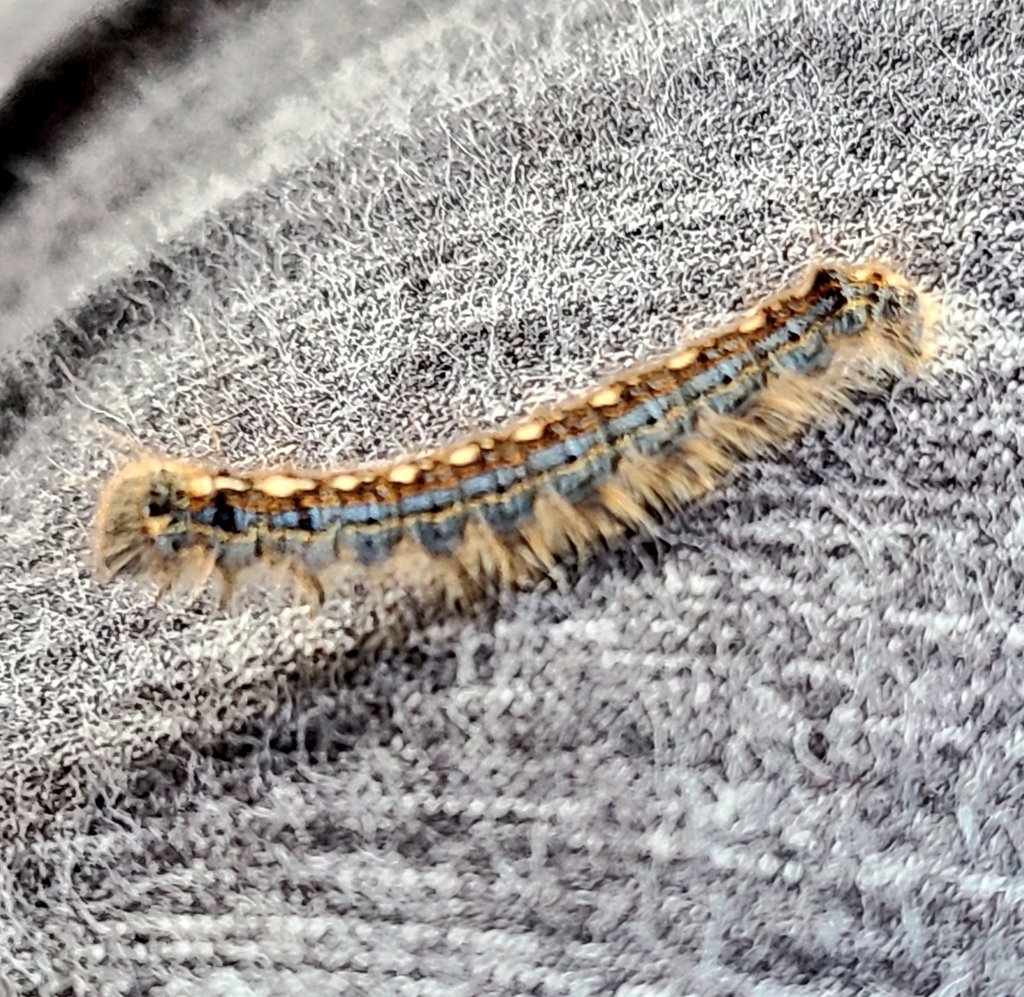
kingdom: Animalia
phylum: Arthropoda
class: Insecta
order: Lepidoptera
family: Lasiocampidae
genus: Malacosoma
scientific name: Malacosoma disstria
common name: Forest tent caterpillar
